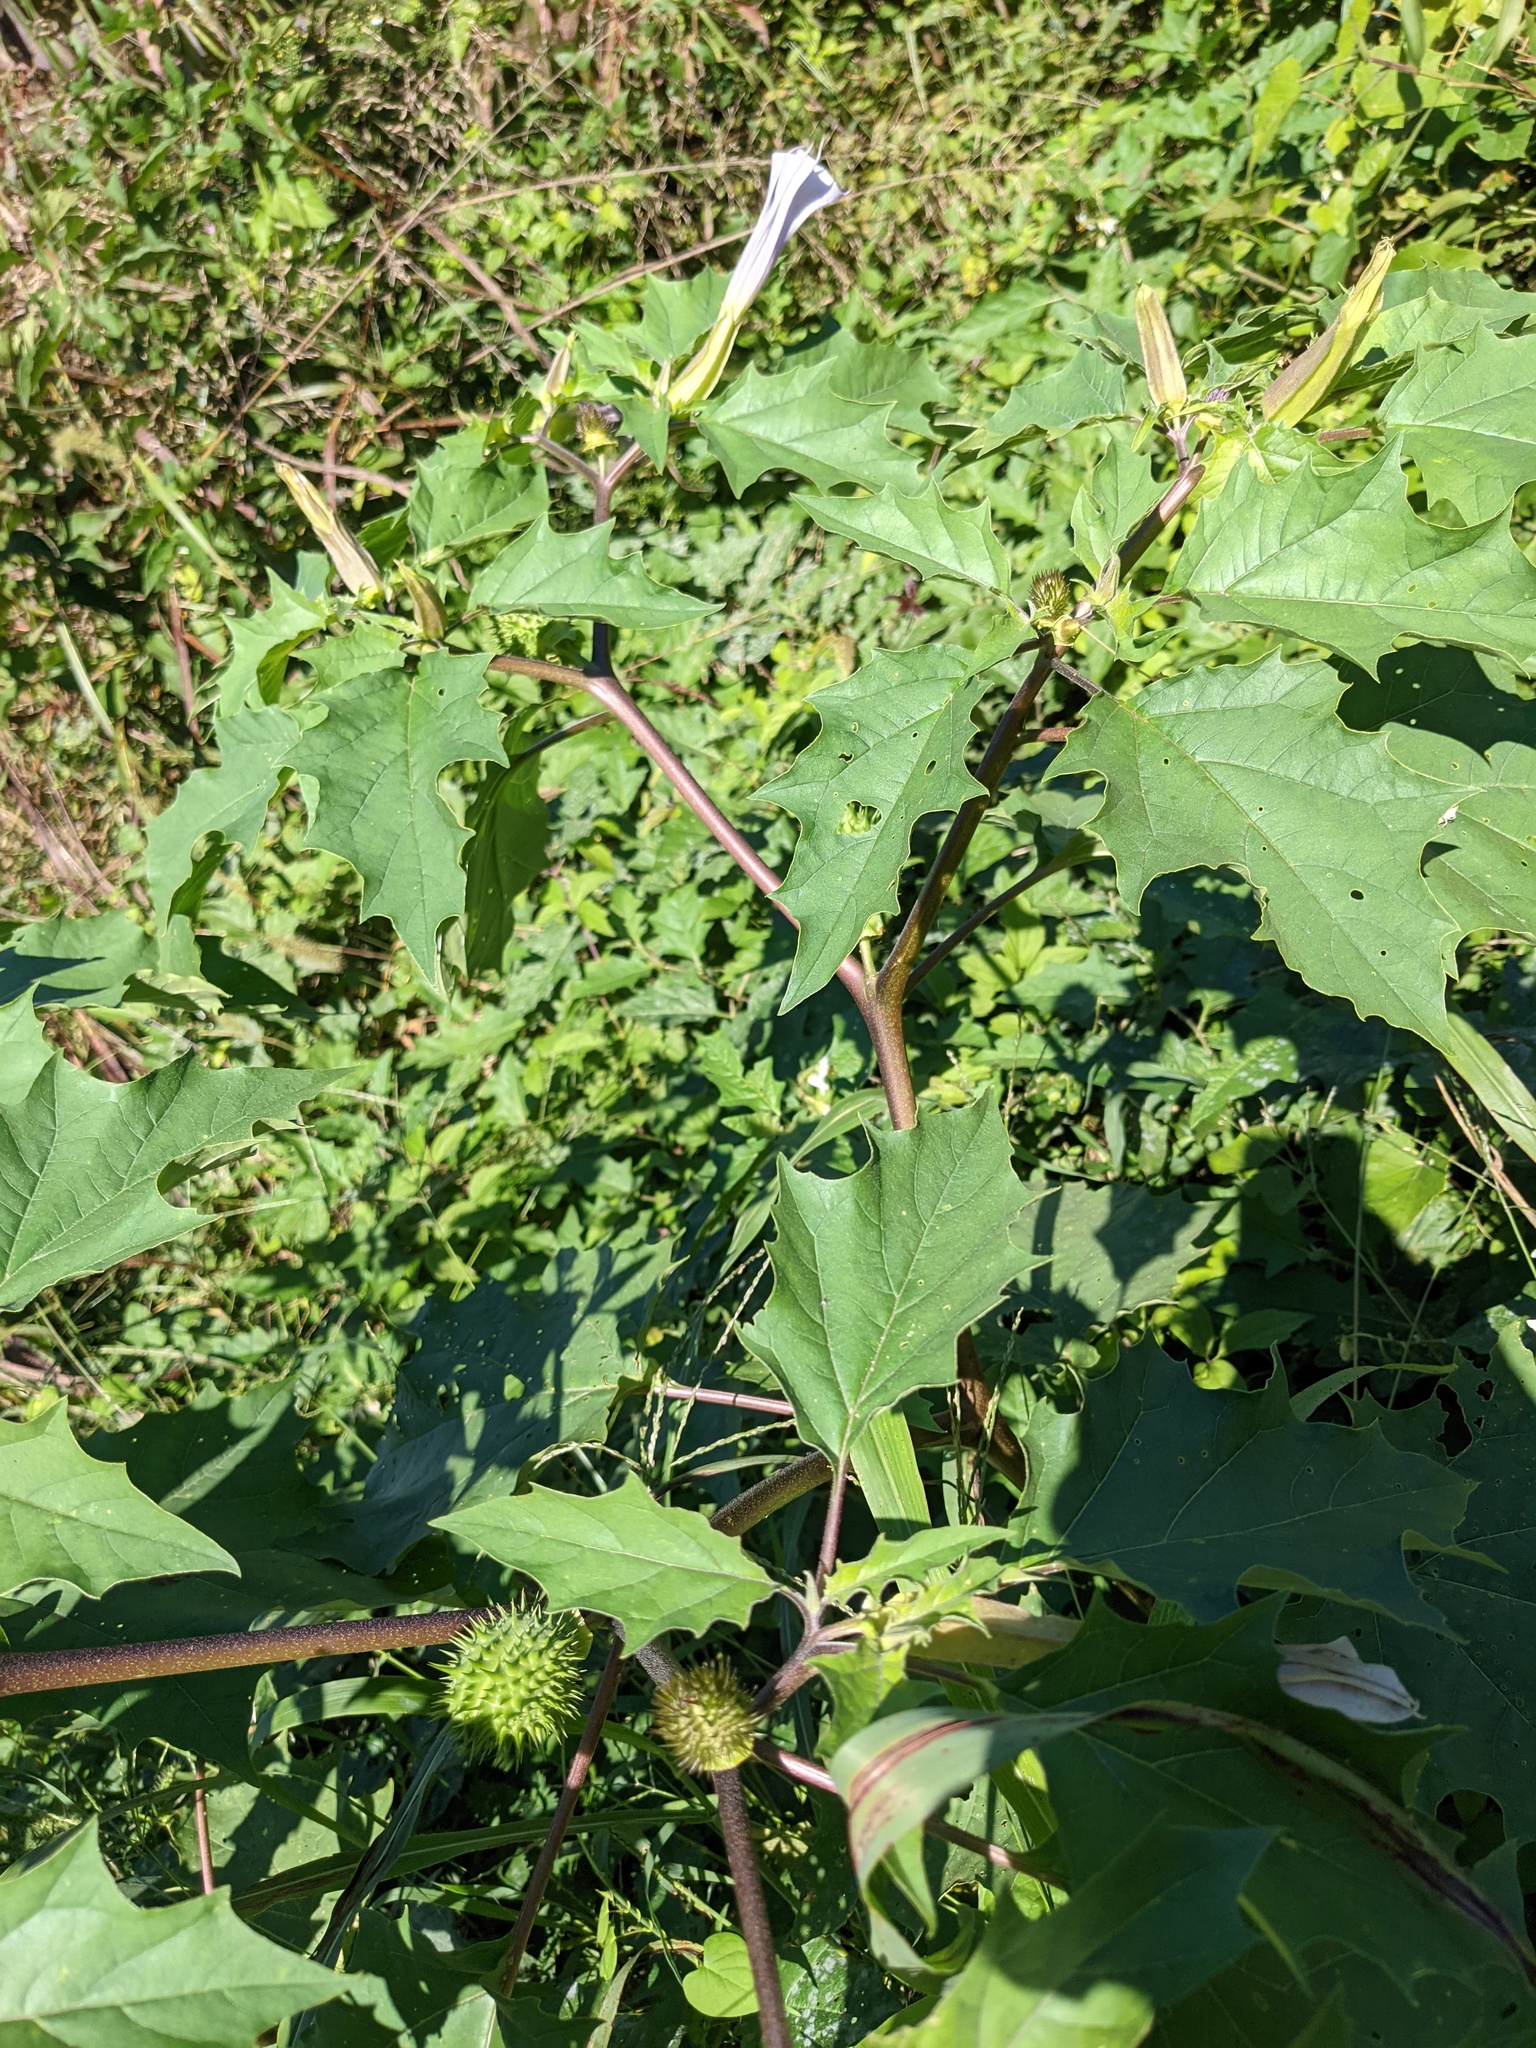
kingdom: Plantae
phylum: Tracheophyta
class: Magnoliopsida
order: Solanales
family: Solanaceae
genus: Datura
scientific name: Datura stramonium
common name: Thorn-apple
